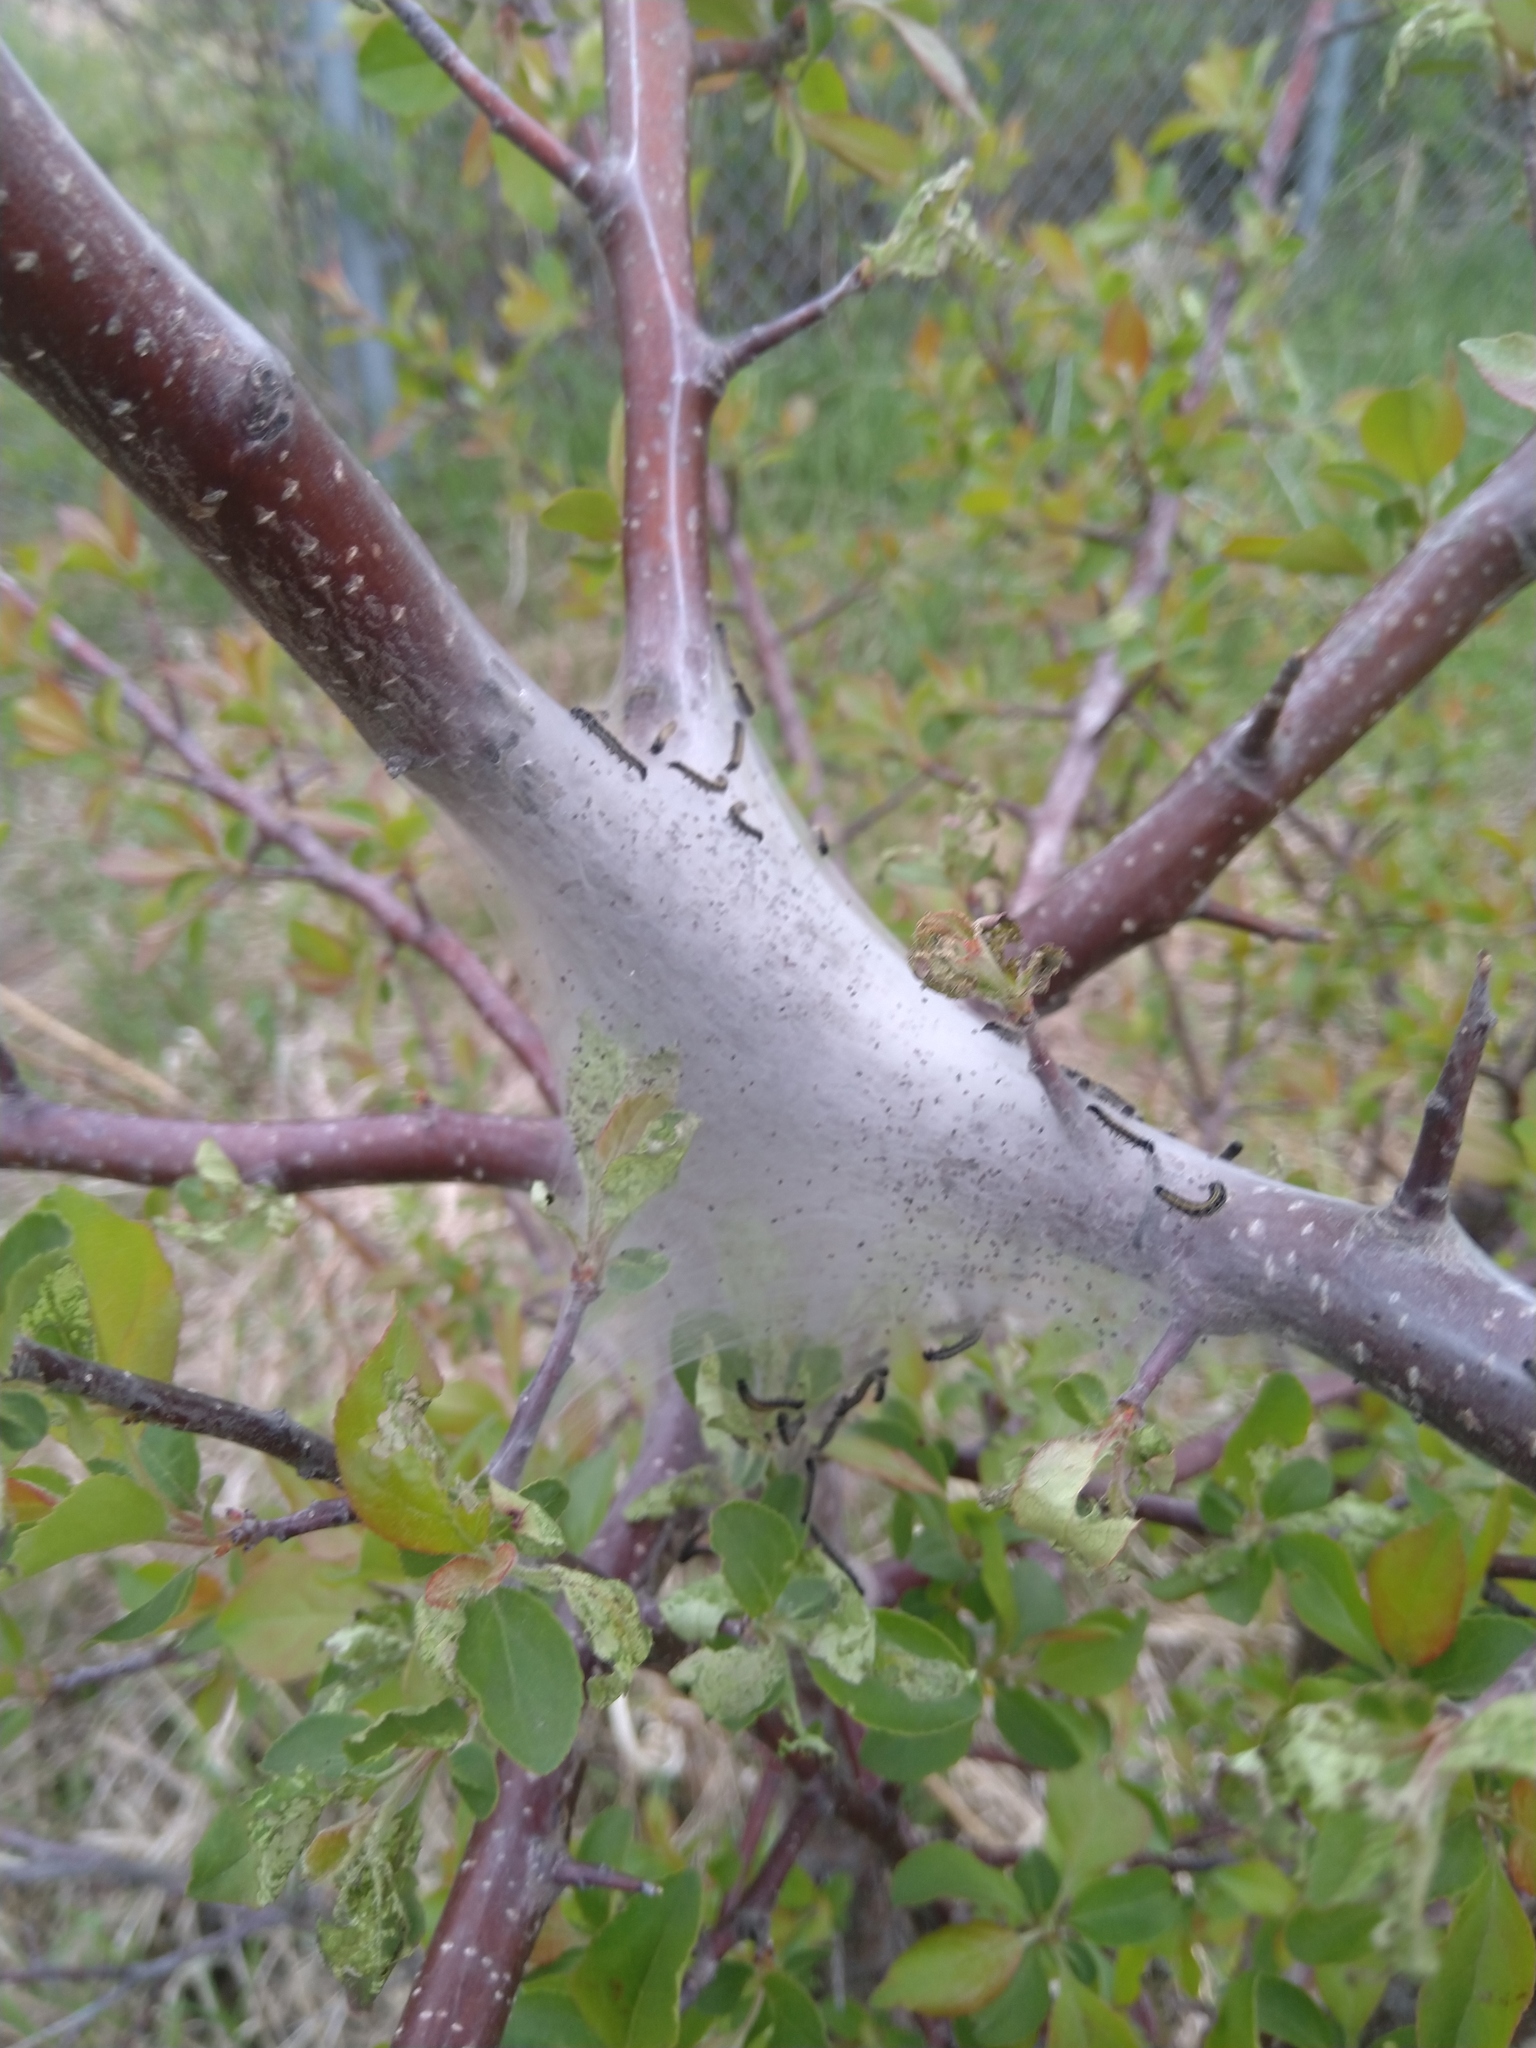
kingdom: Animalia
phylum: Arthropoda
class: Insecta
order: Lepidoptera
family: Lasiocampidae
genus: Malacosoma
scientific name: Malacosoma americana
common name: Eastern tent caterpillar moth
